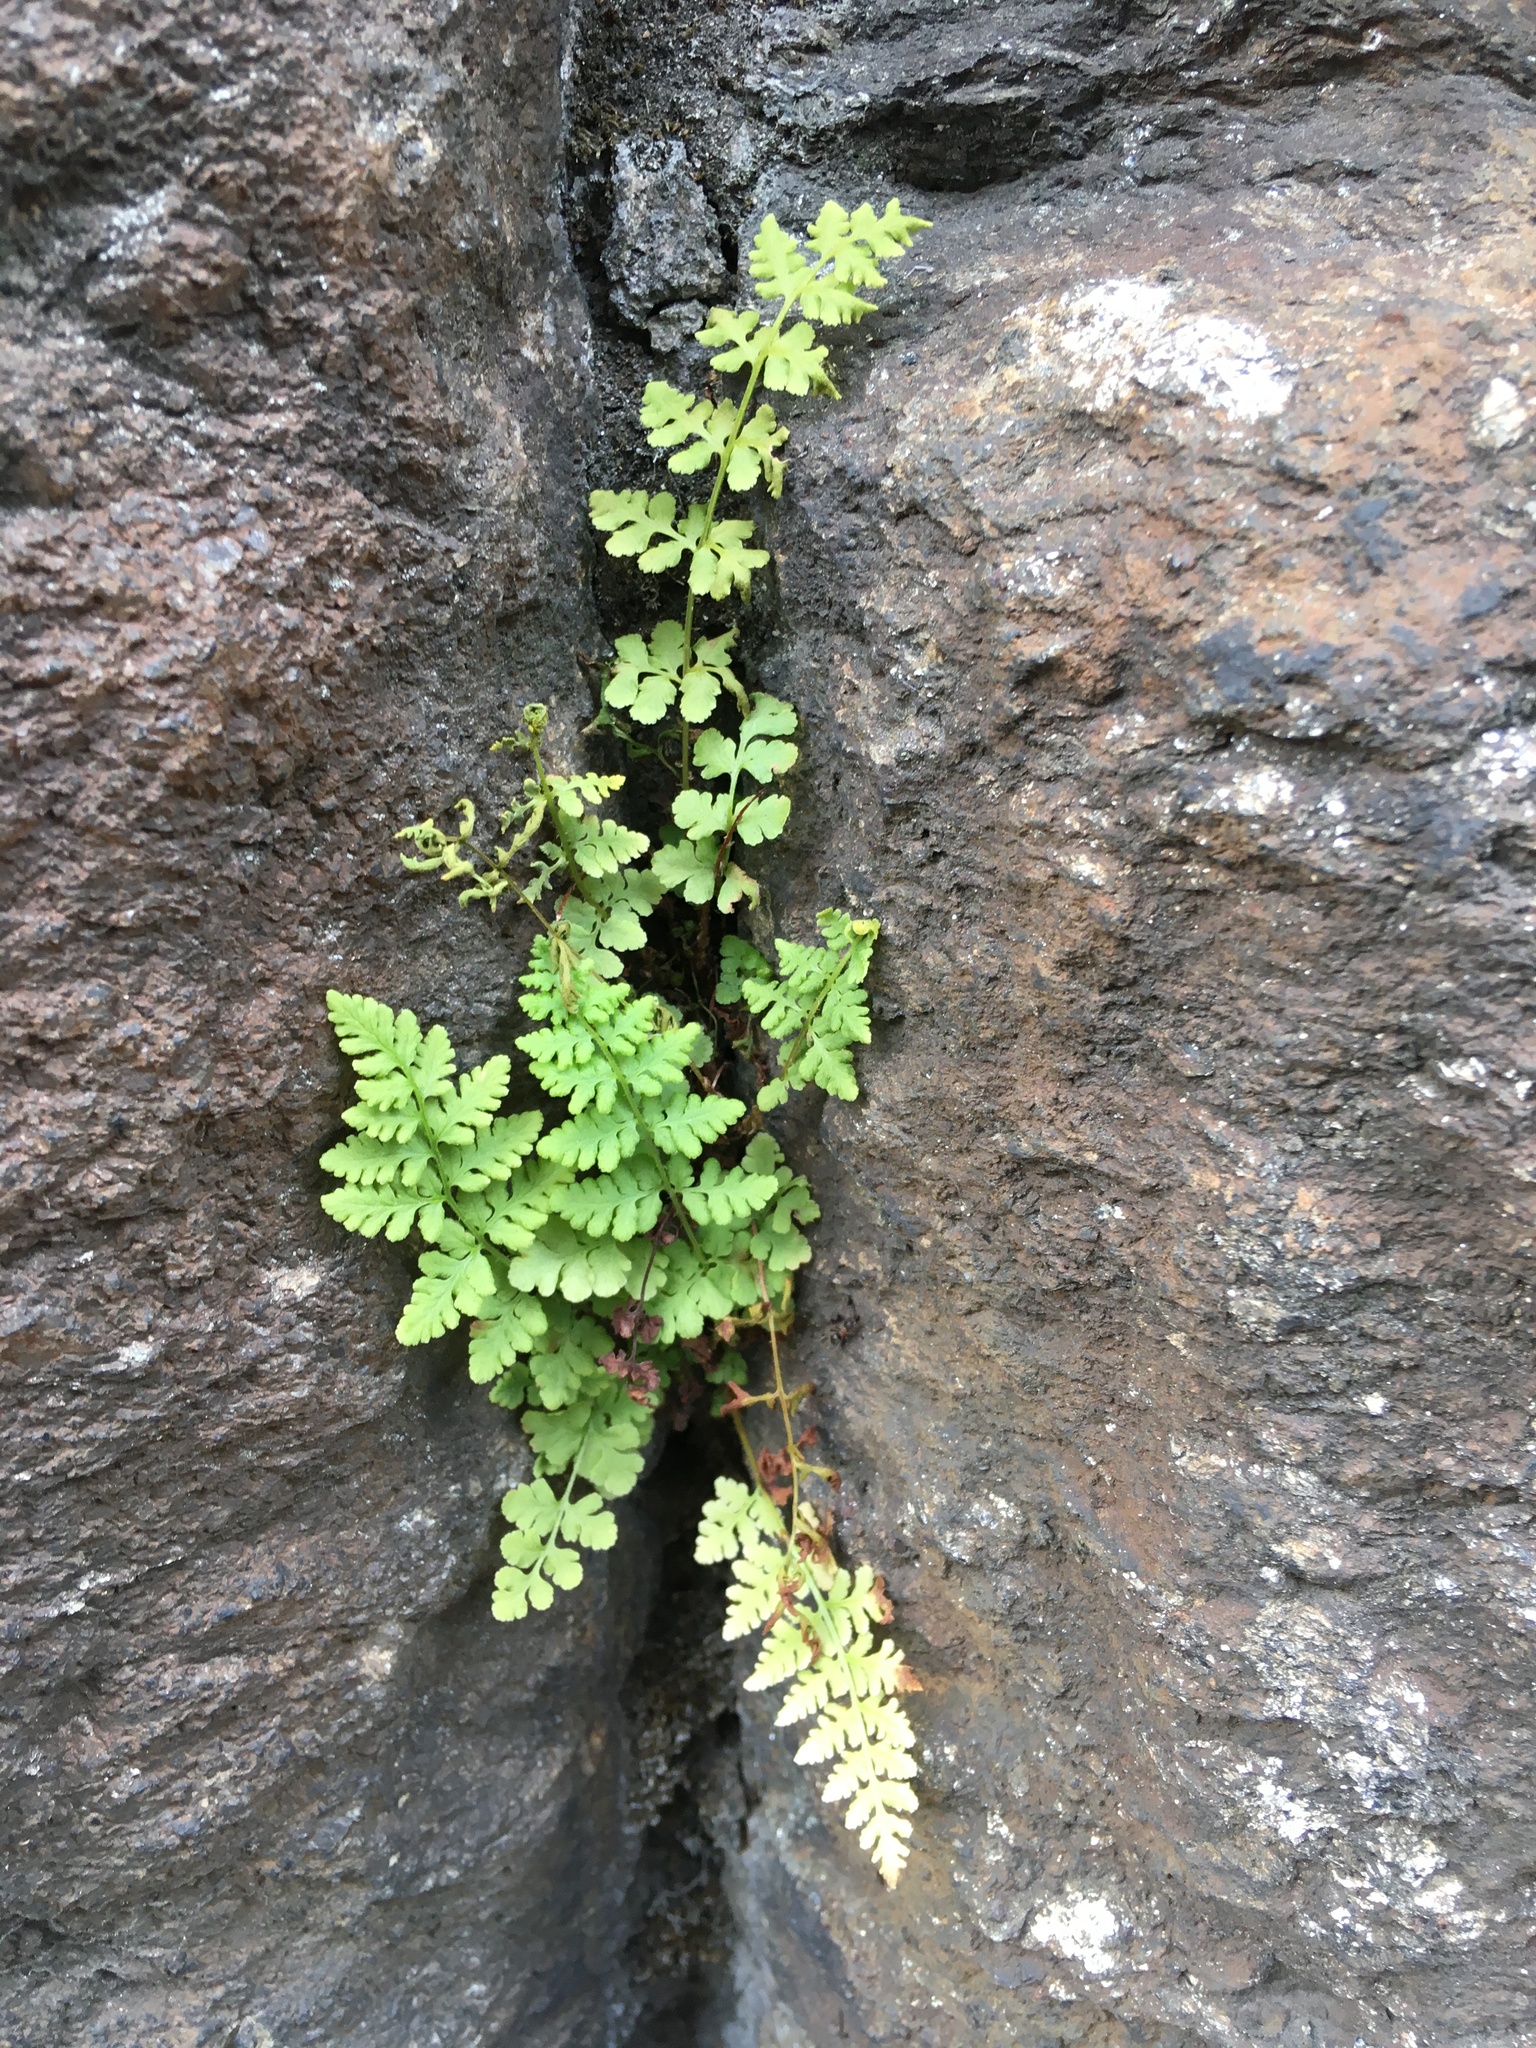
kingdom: Plantae
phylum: Tracheophyta
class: Polypodiopsida
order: Polypodiales
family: Woodsiaceae
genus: Physematium
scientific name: Physematium obtusum
